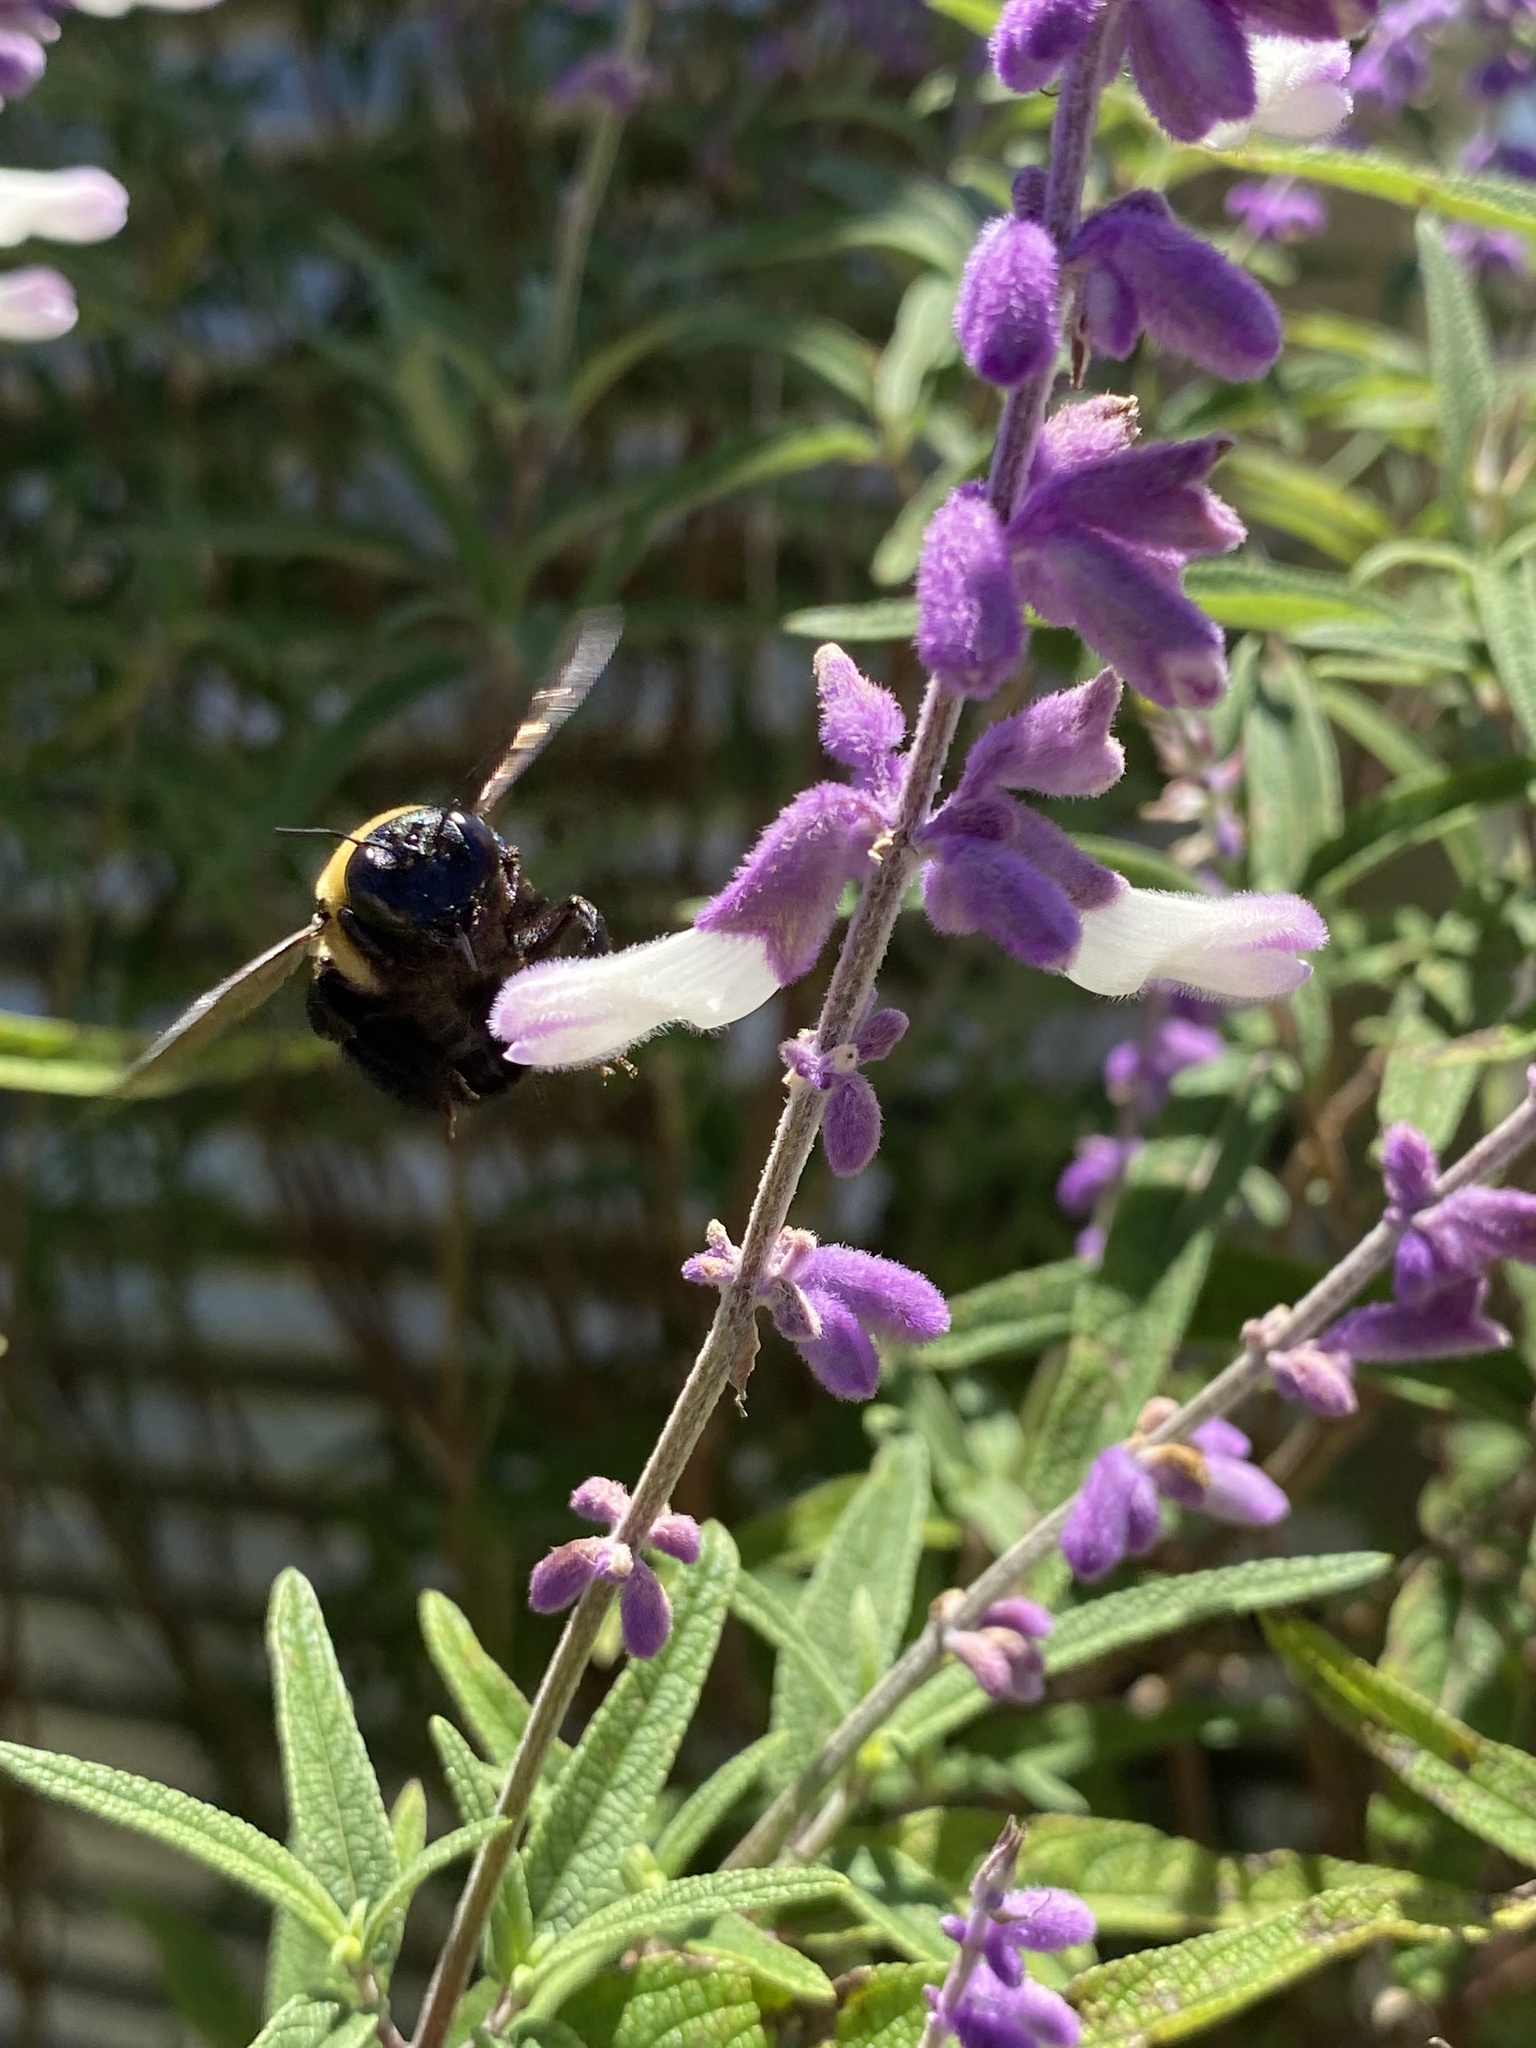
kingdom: Animalia
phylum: Arthropoda
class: Insecta
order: Hymenoptera
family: Apidae
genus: Xylocopa
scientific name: Xylocopa virginica
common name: Carpenter bee
